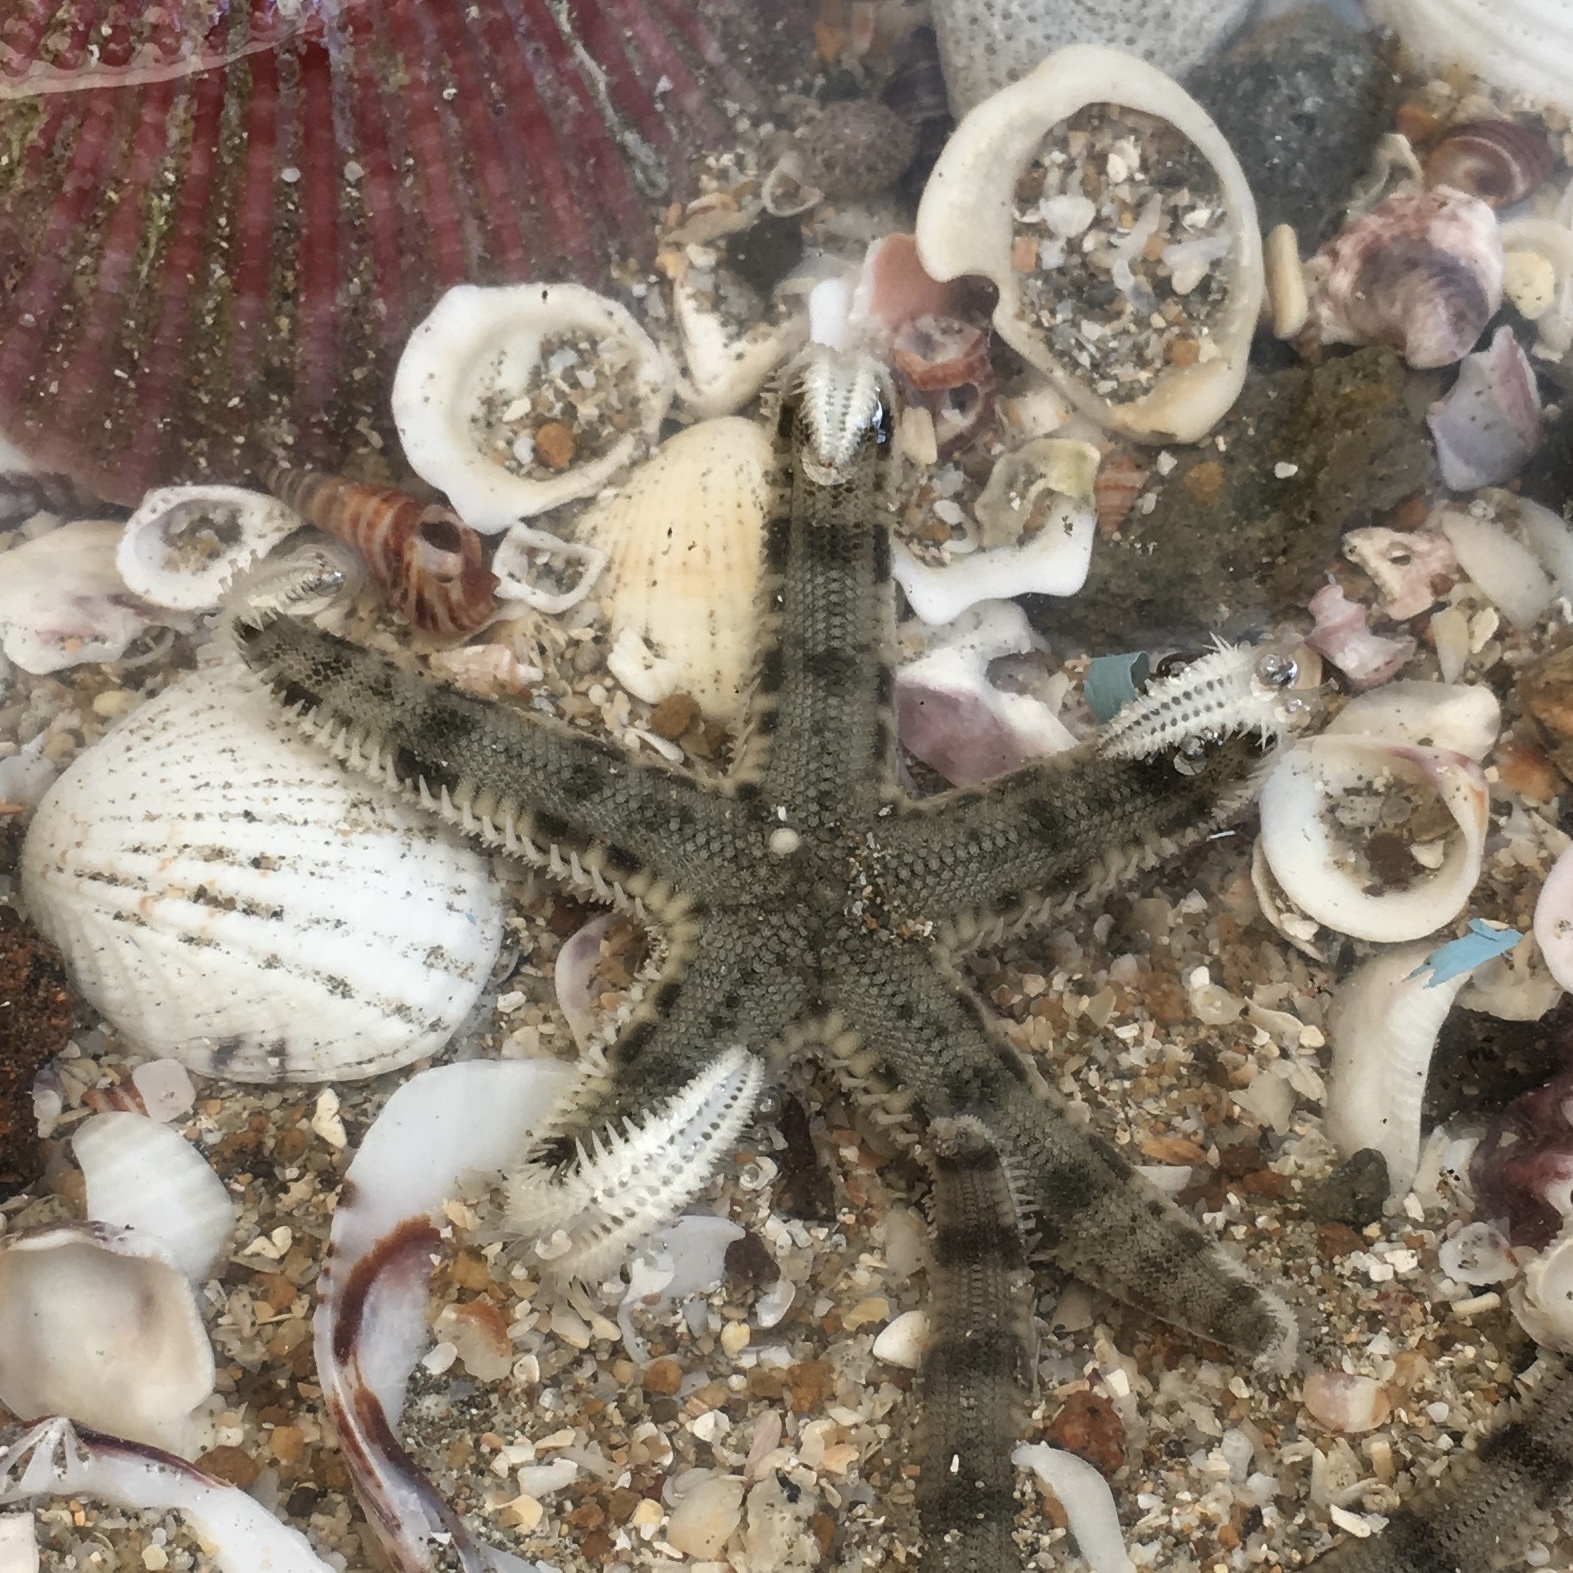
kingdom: Animalia
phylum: Echinodermata
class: Asteroidea
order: Valvatida
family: Archasteridae
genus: Archaster
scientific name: Archaster typicus
